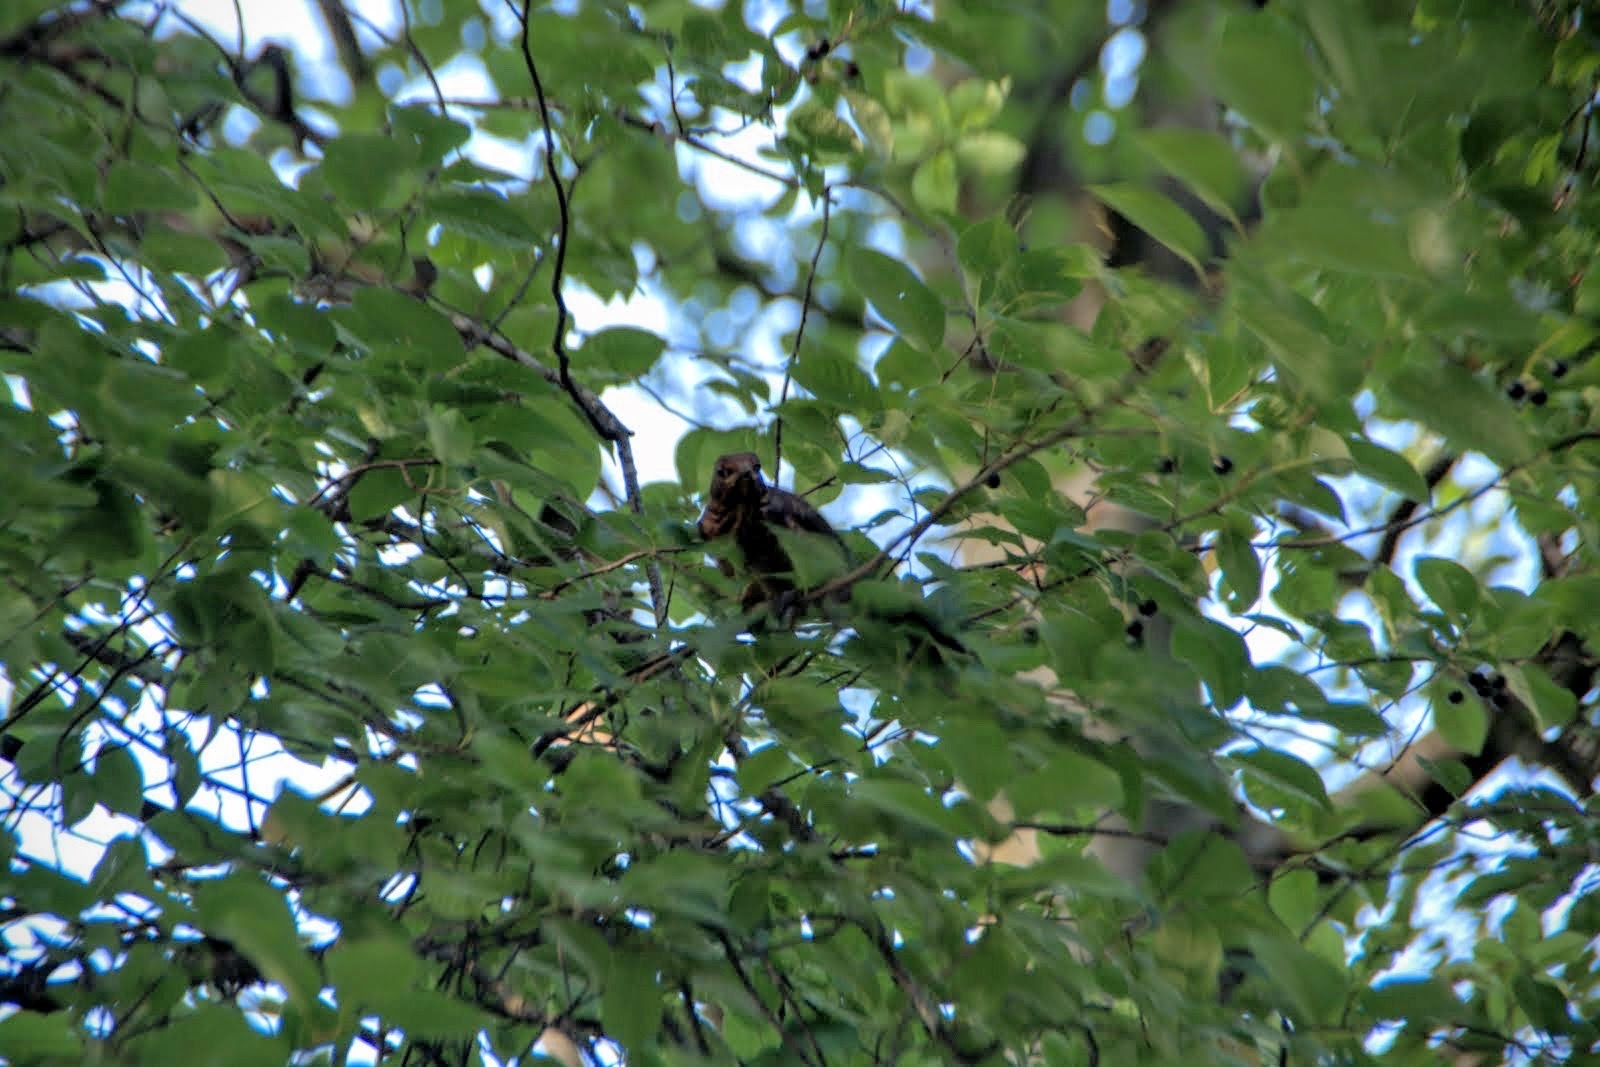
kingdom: Animalia
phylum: Chordata
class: Aves
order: Passeriformes
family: Turdidae
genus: Turdus
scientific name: Turdus merula
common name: Common blackbird
